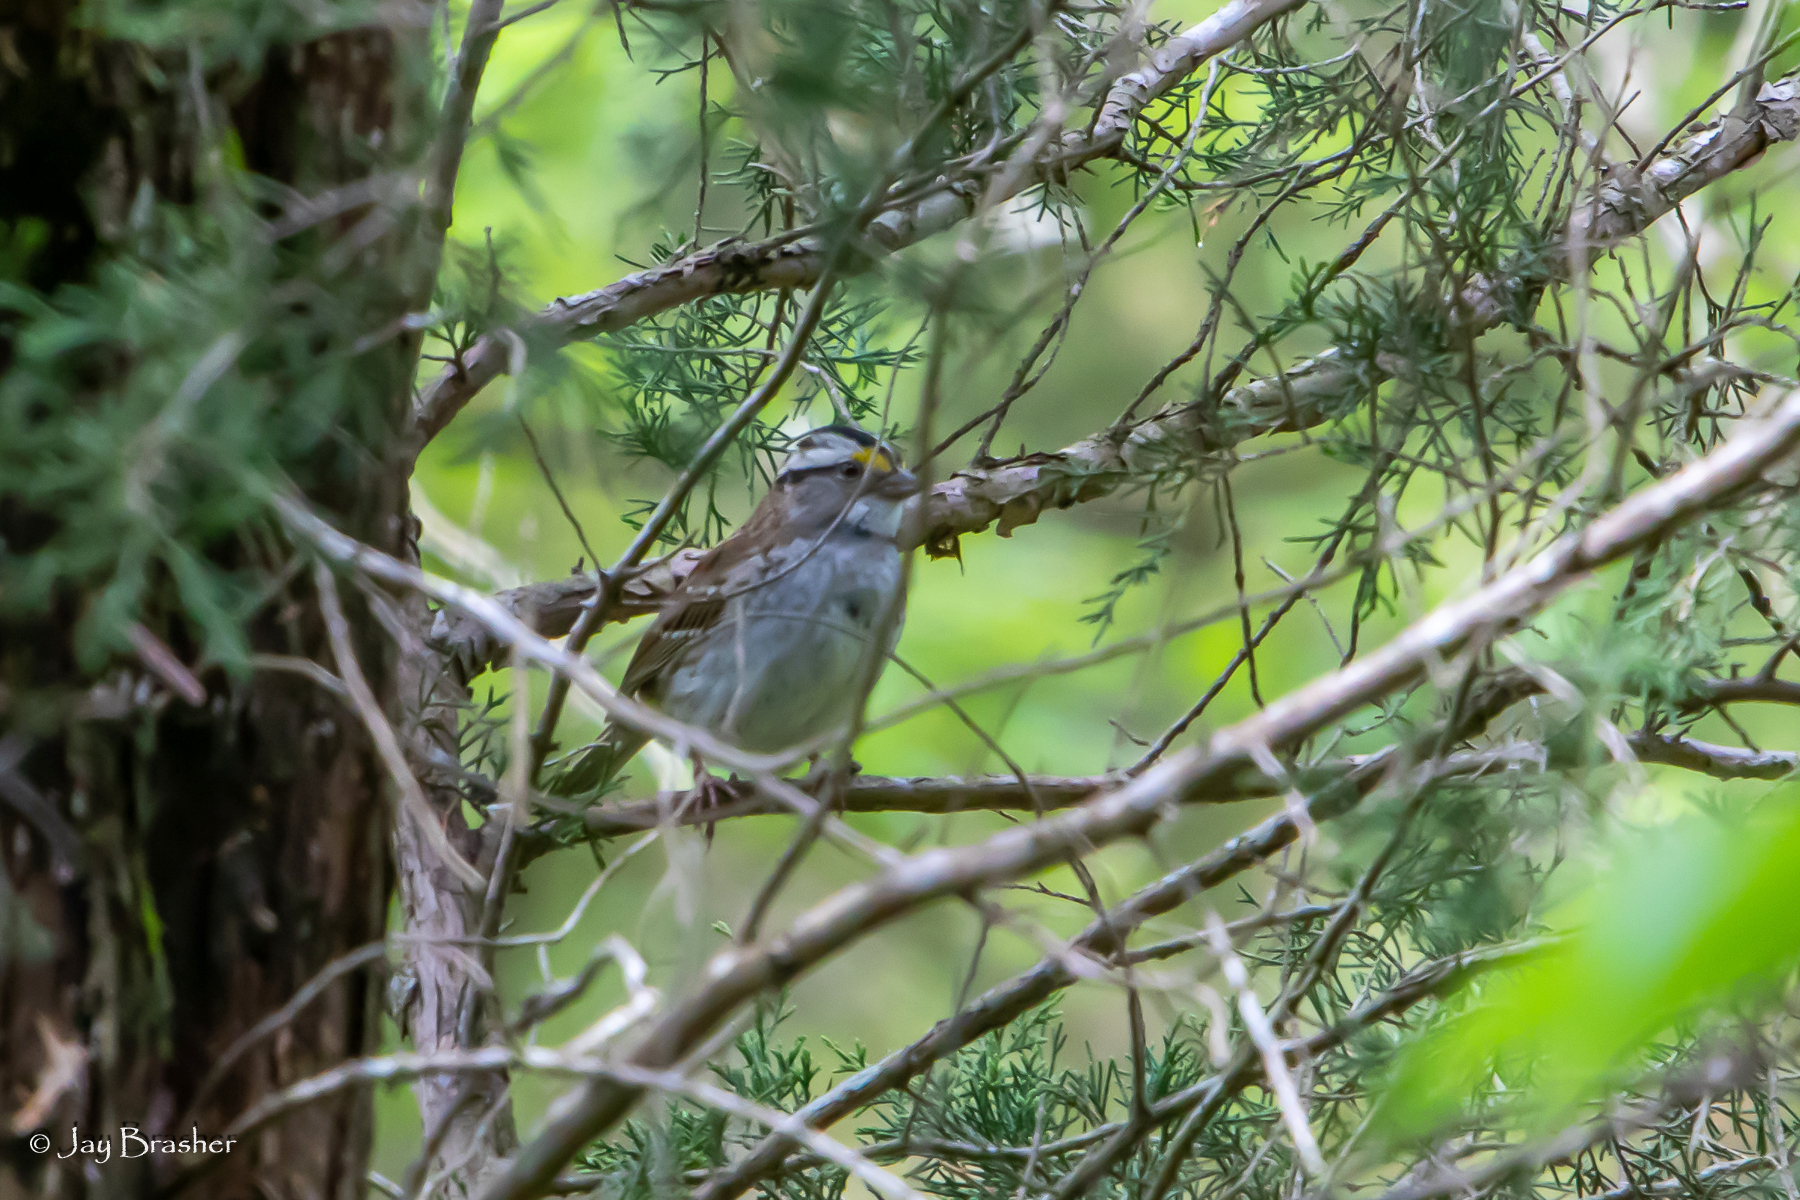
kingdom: Animalia
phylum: Chordata
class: Aves
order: Passeriformes
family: Passerellidae
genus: Zonotrichia
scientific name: Zonotrichia albicollis
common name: White-throated sparrow
